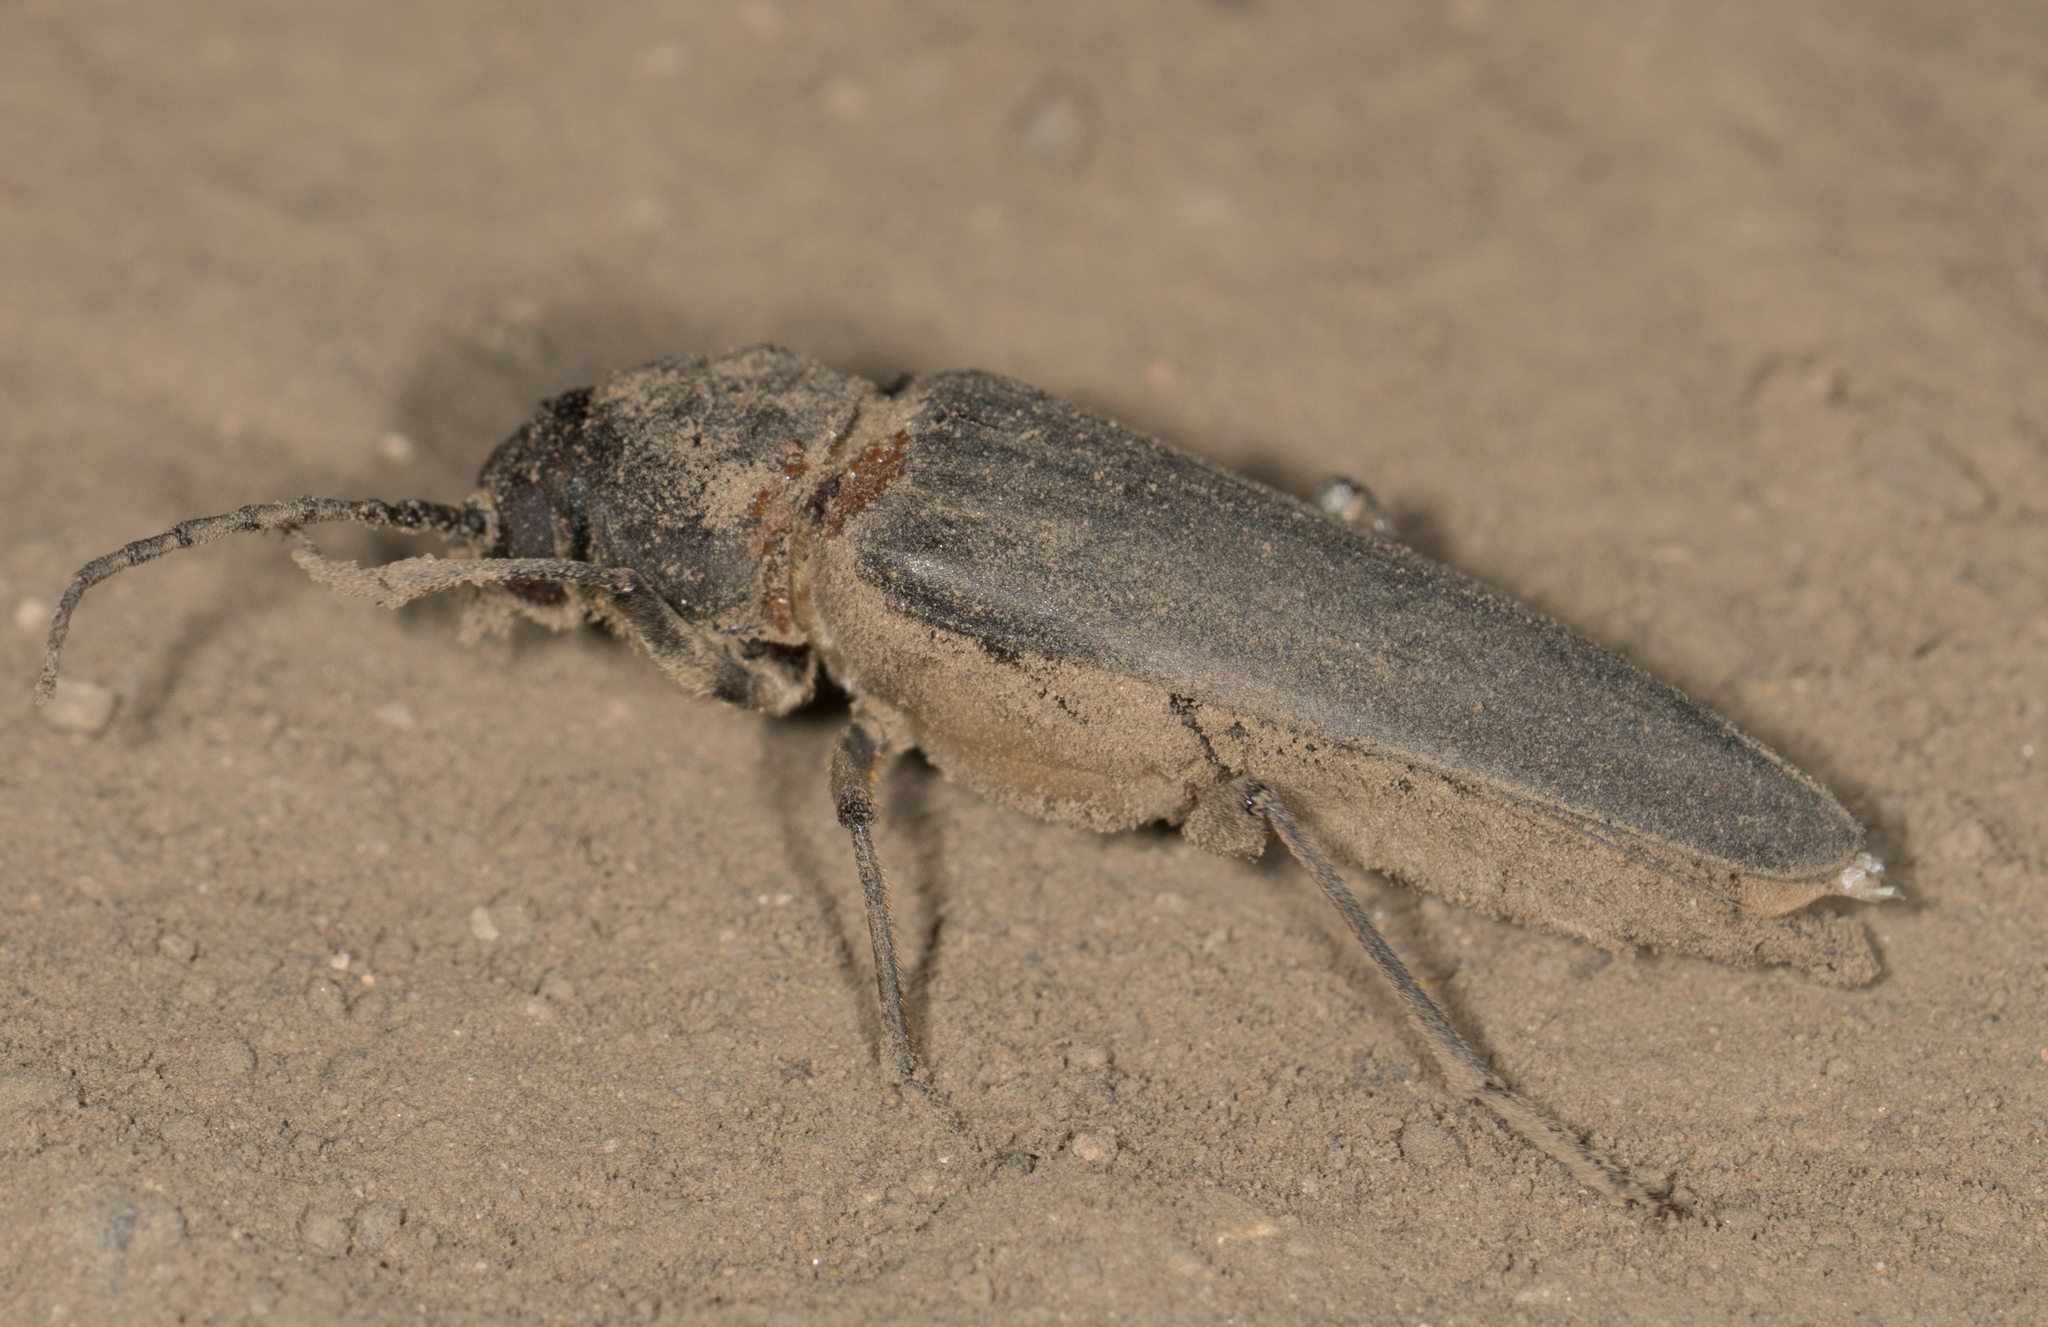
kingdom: Animalia
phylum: Arthropoda
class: Insecta
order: Coleoptera
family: Cerambycidae
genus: Arhopalus
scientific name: Arhopalus asperatus
